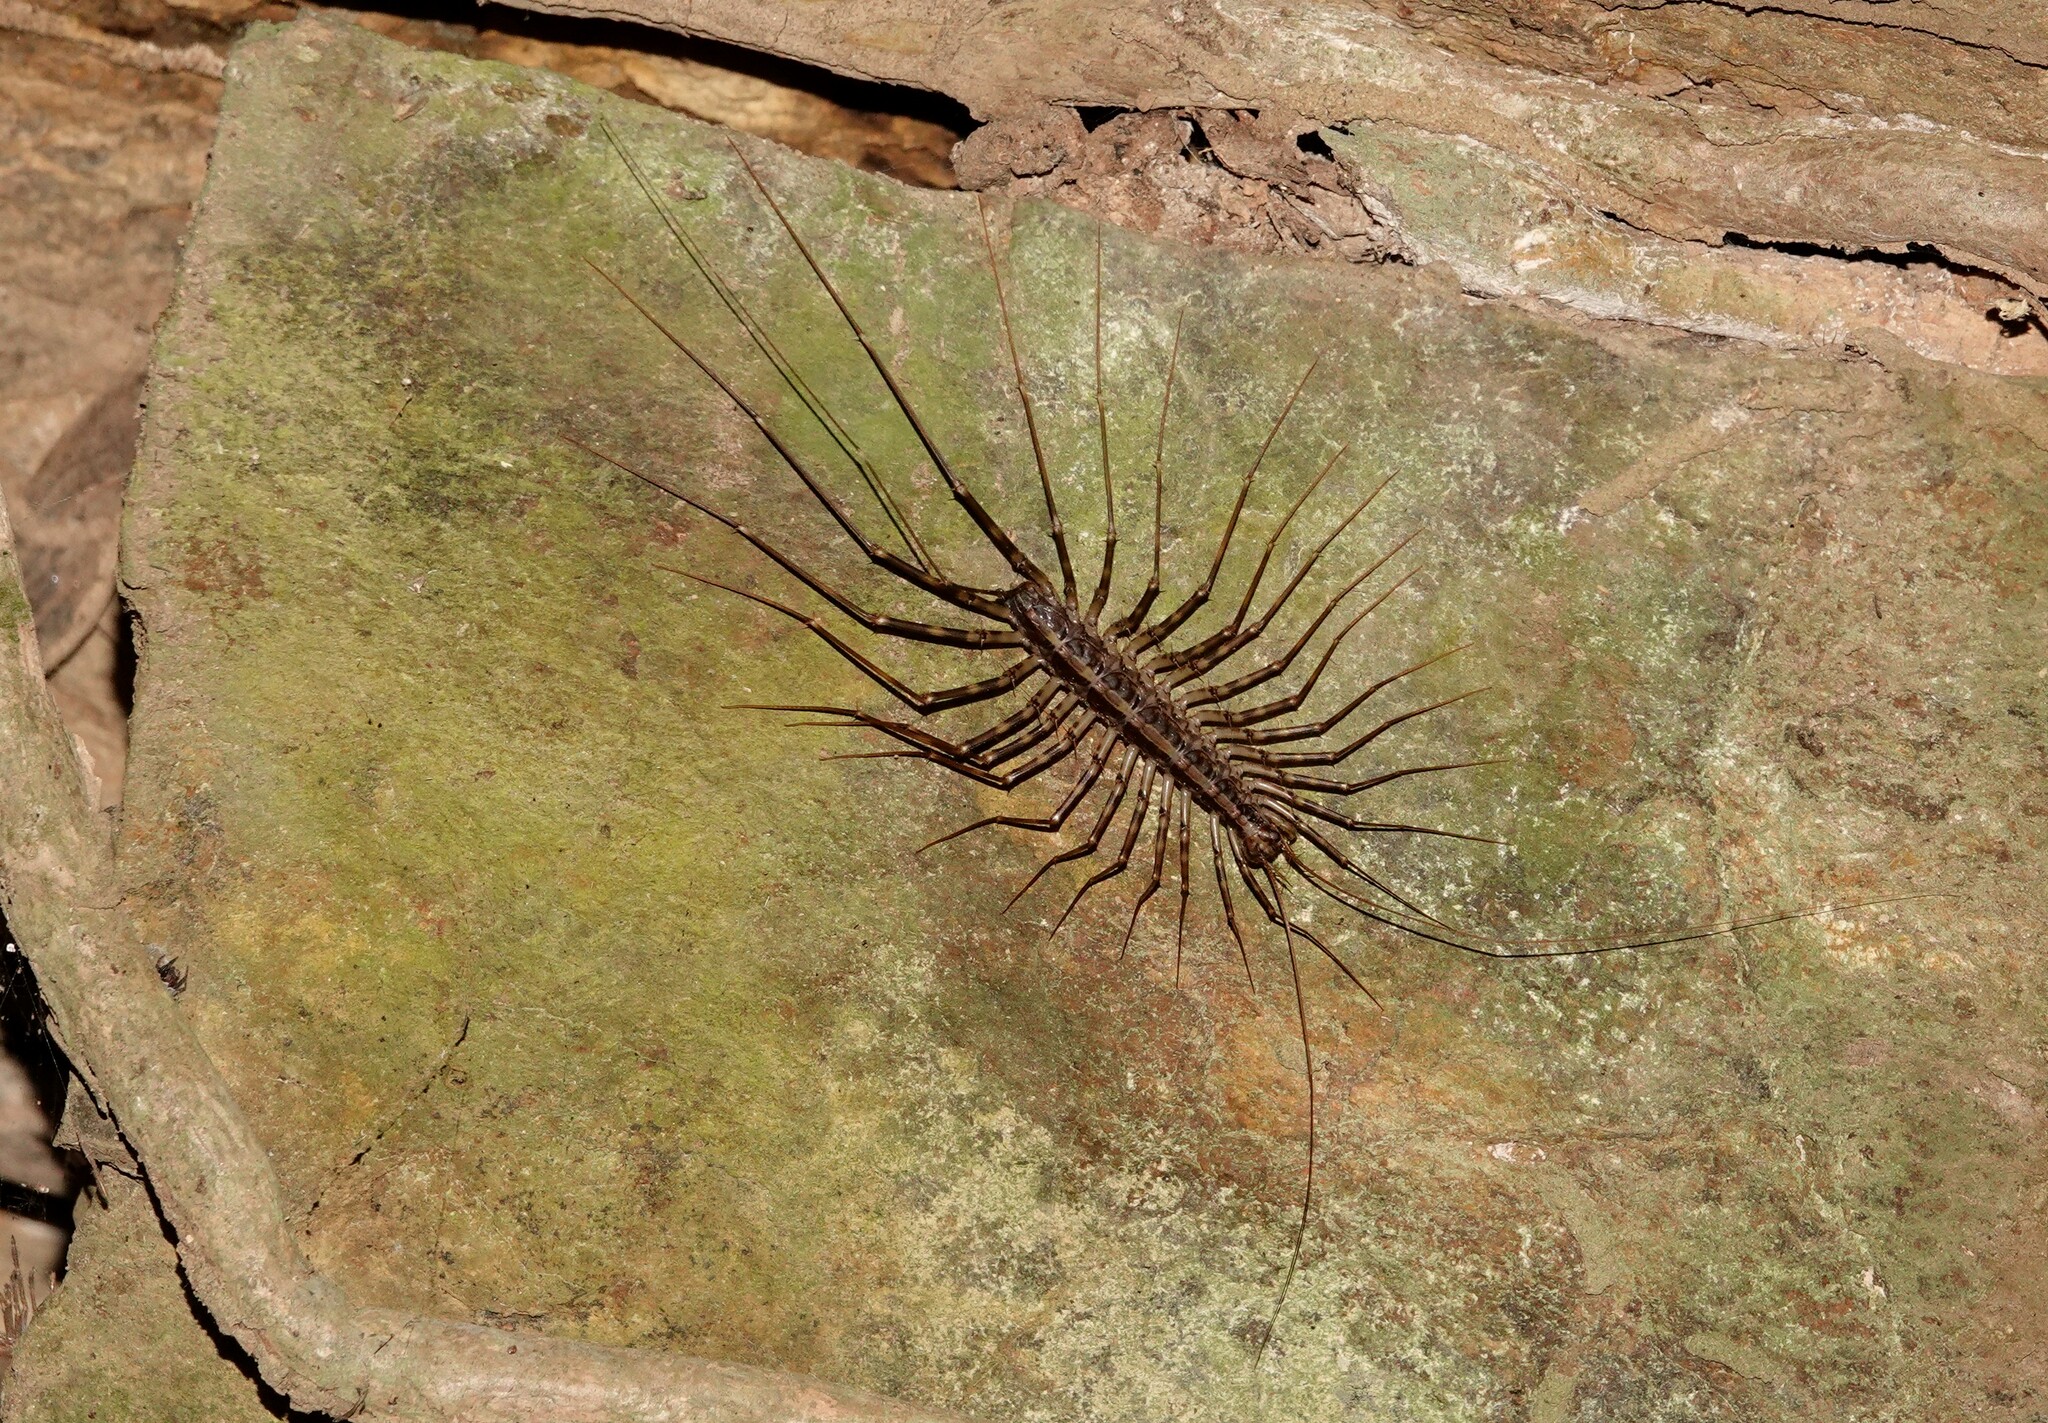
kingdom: Animalia
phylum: Arthropoda
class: Chilopoda
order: Scutigeromorpha
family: Pselliodidae
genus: Sphendononema
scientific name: Sphendononema guildingii
